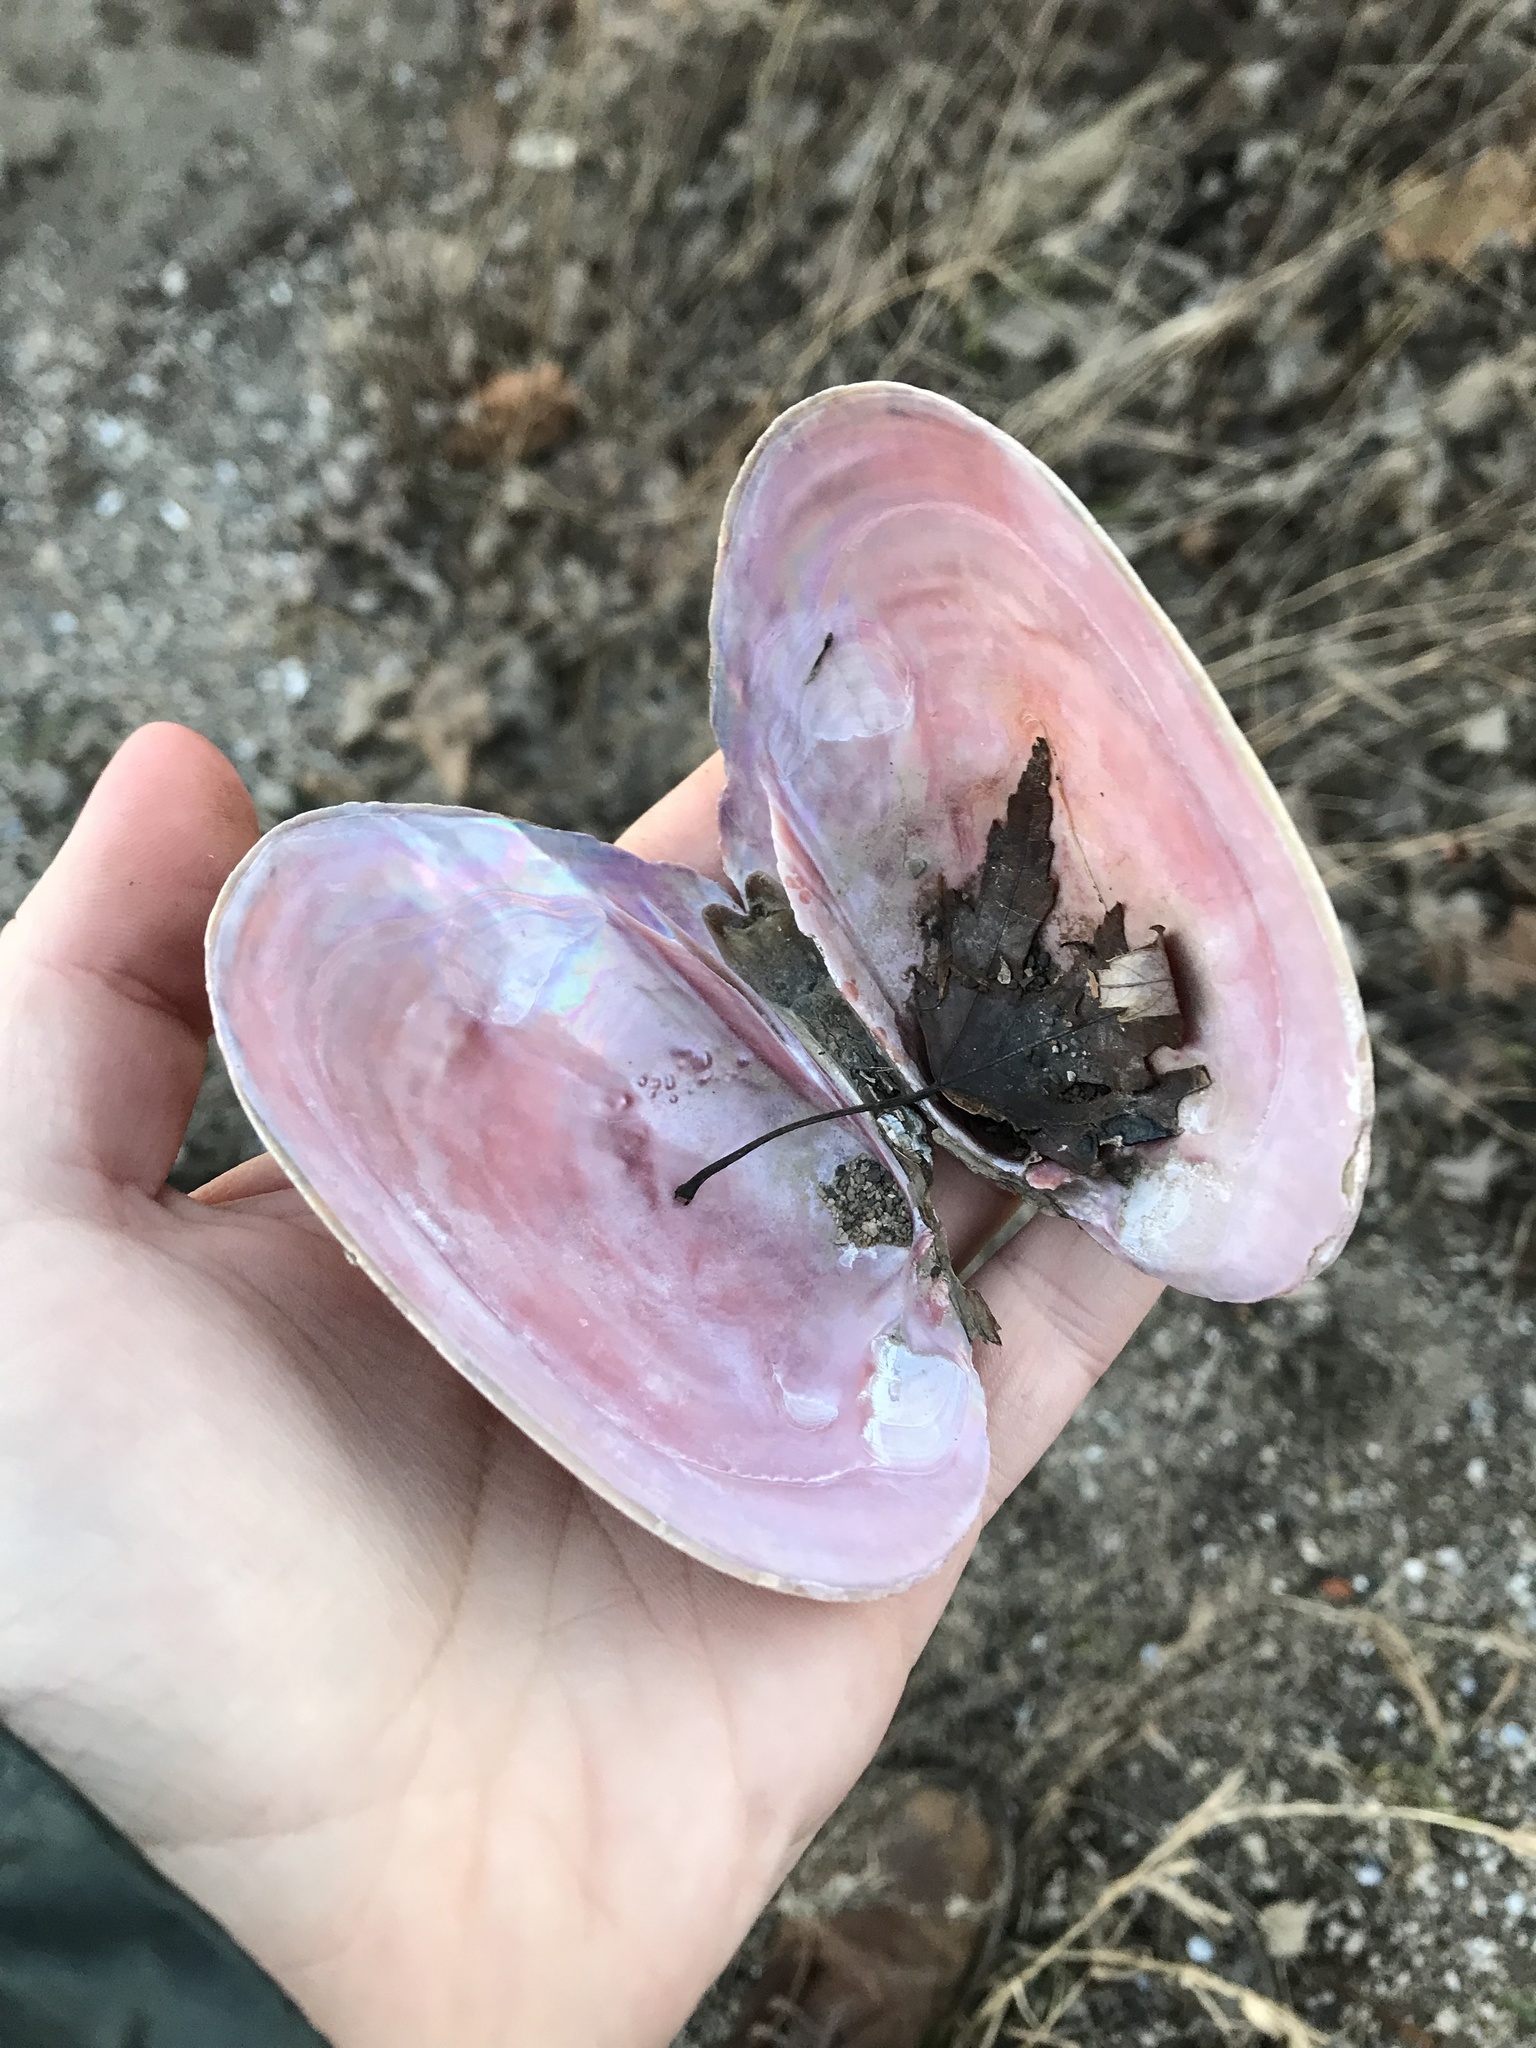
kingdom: Animalia
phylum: Mollusca
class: Bivalvia
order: Unionida
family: Unionidae
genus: Potamilus
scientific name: Potamilus alatus
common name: Pink heelsplitter
